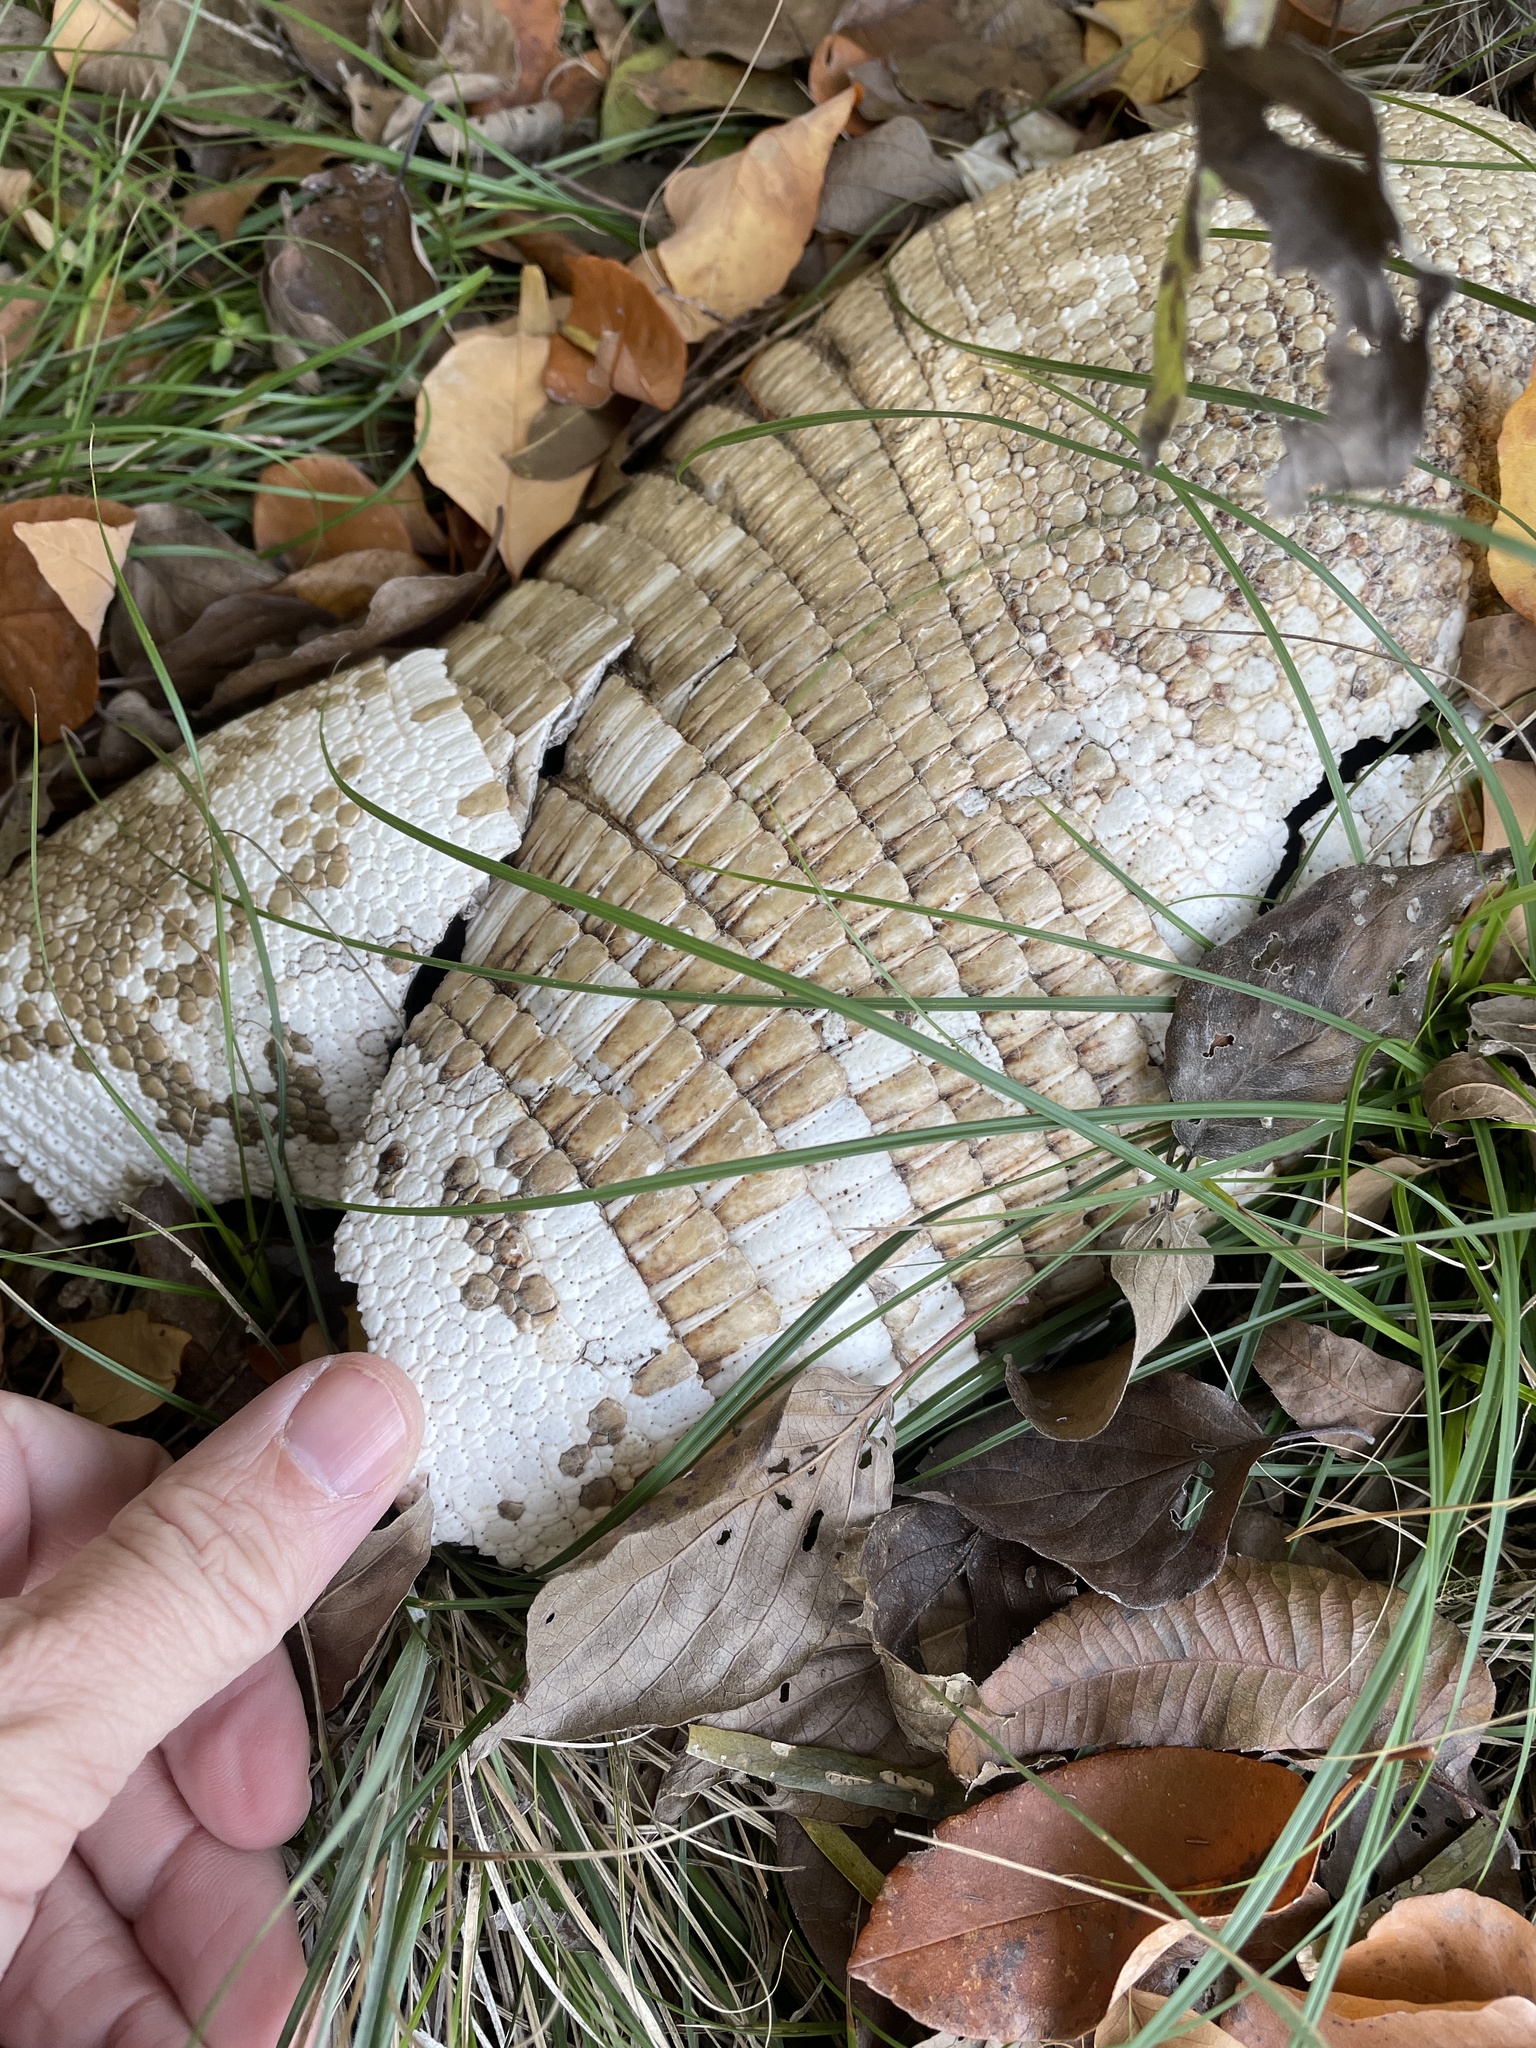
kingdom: Animalia
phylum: Chordata
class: Mammalia
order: Cingulata
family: Dasypodidae
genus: Dasypus
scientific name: Dasypus novemcinctus
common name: Nine-banded armadillo
